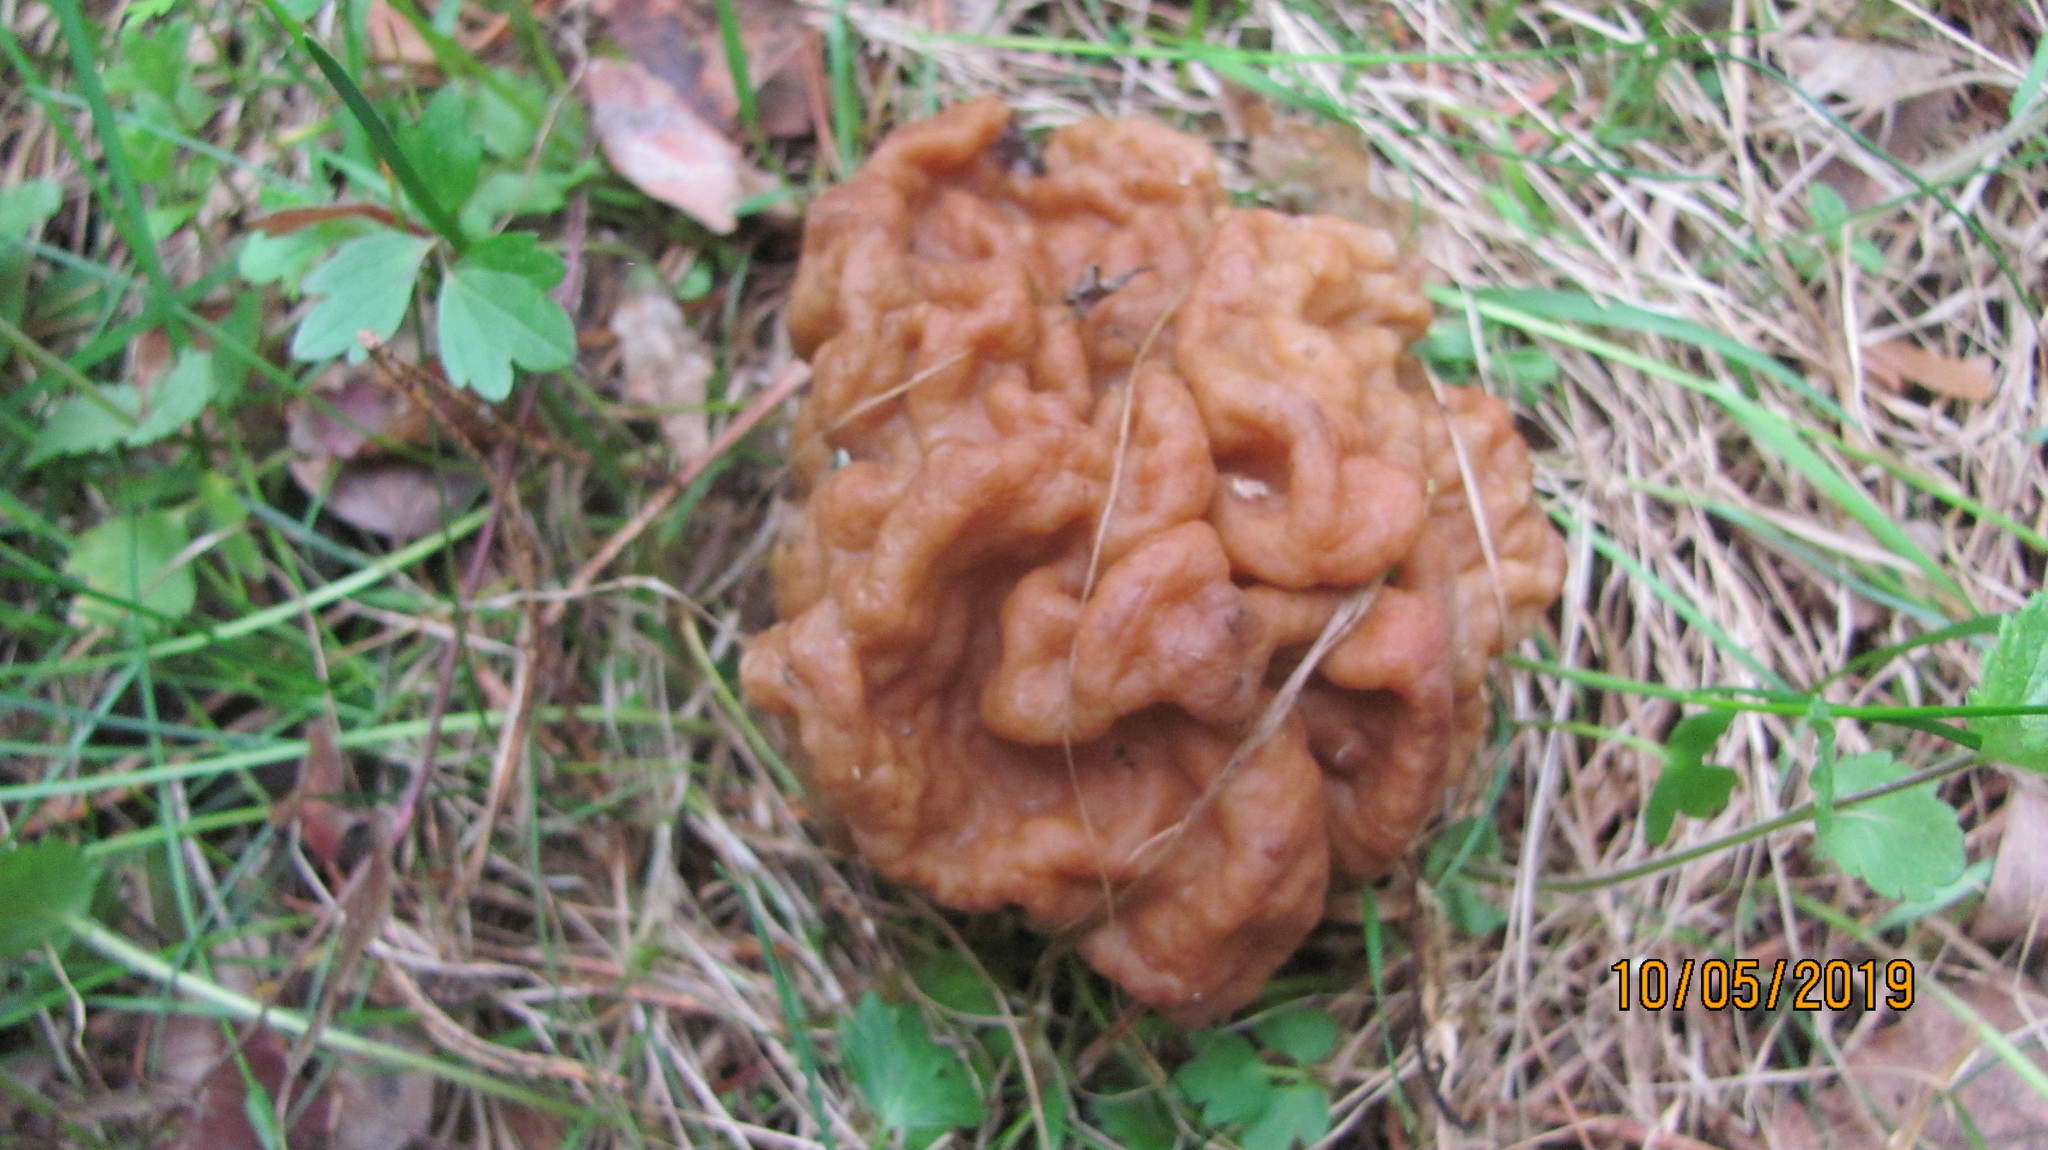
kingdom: Fungi
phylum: Ascomycota
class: Pezizomycetes
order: Pezizales
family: Discinaceae
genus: Gyromitra
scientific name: Gyromitra gigas
